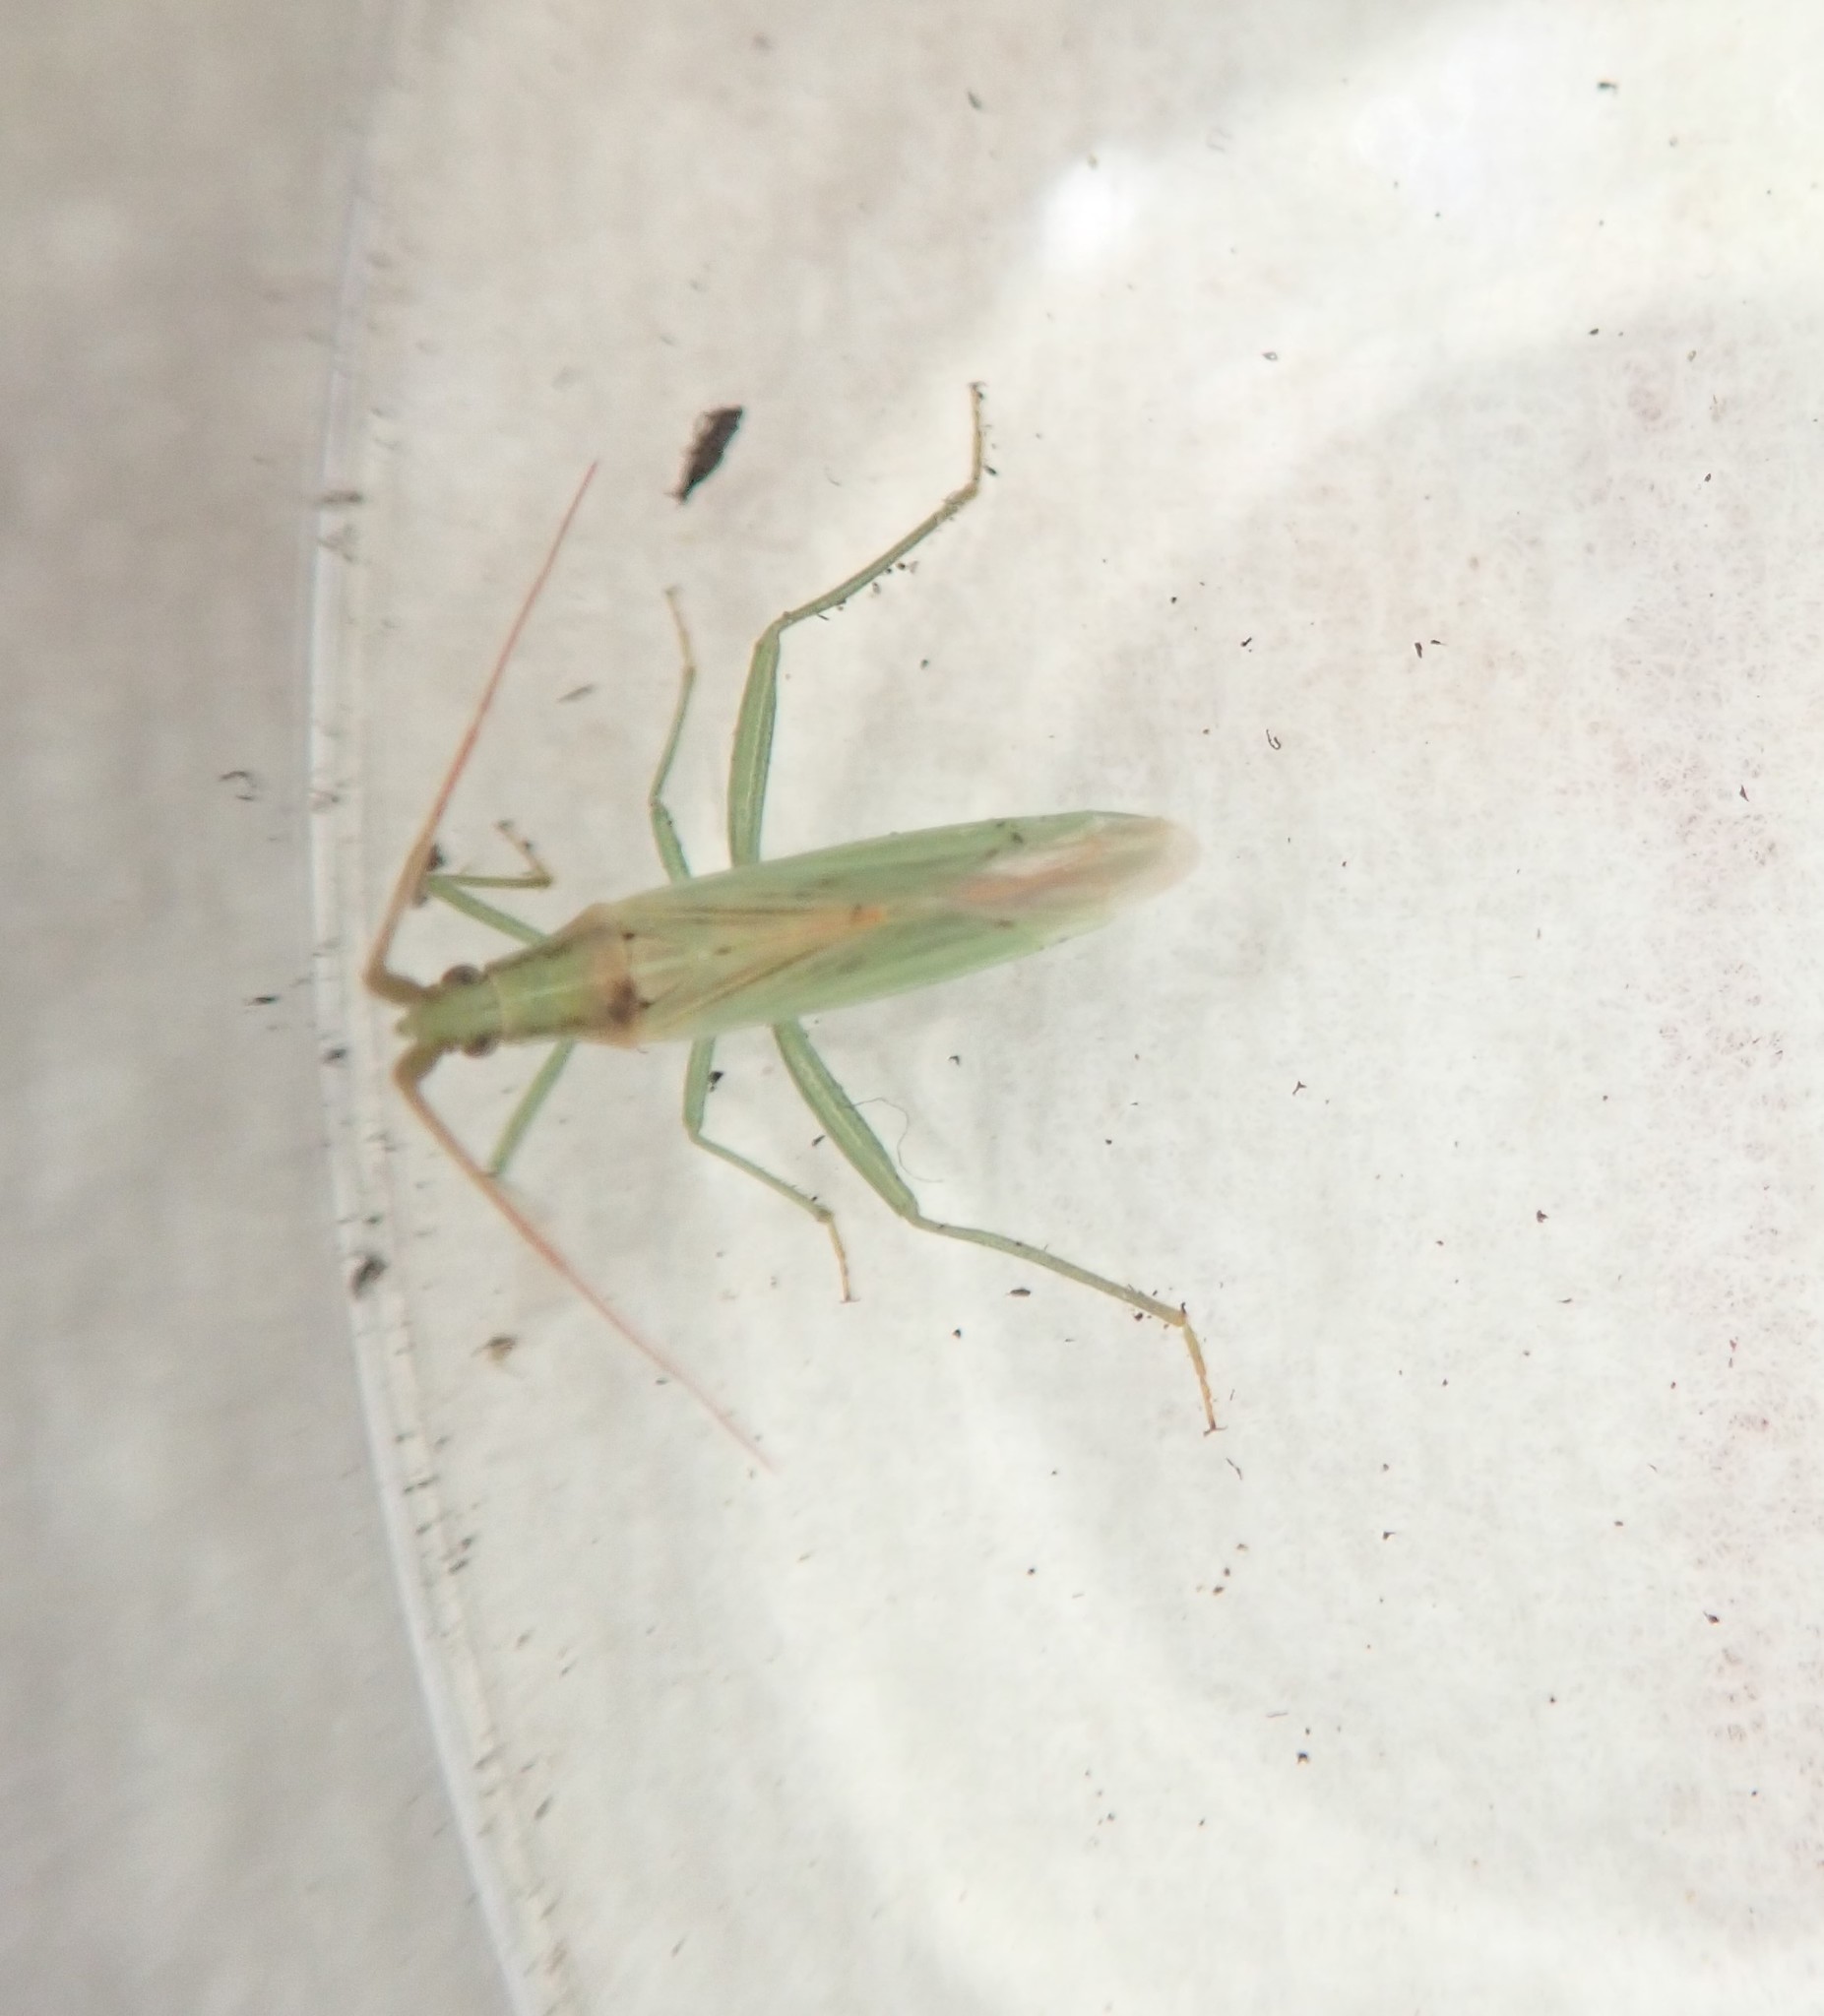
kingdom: Animalia
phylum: Arthropoda
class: Insecta
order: Hemiptera
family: Miridae
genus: Stenodema
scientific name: Stenodema laevigata
